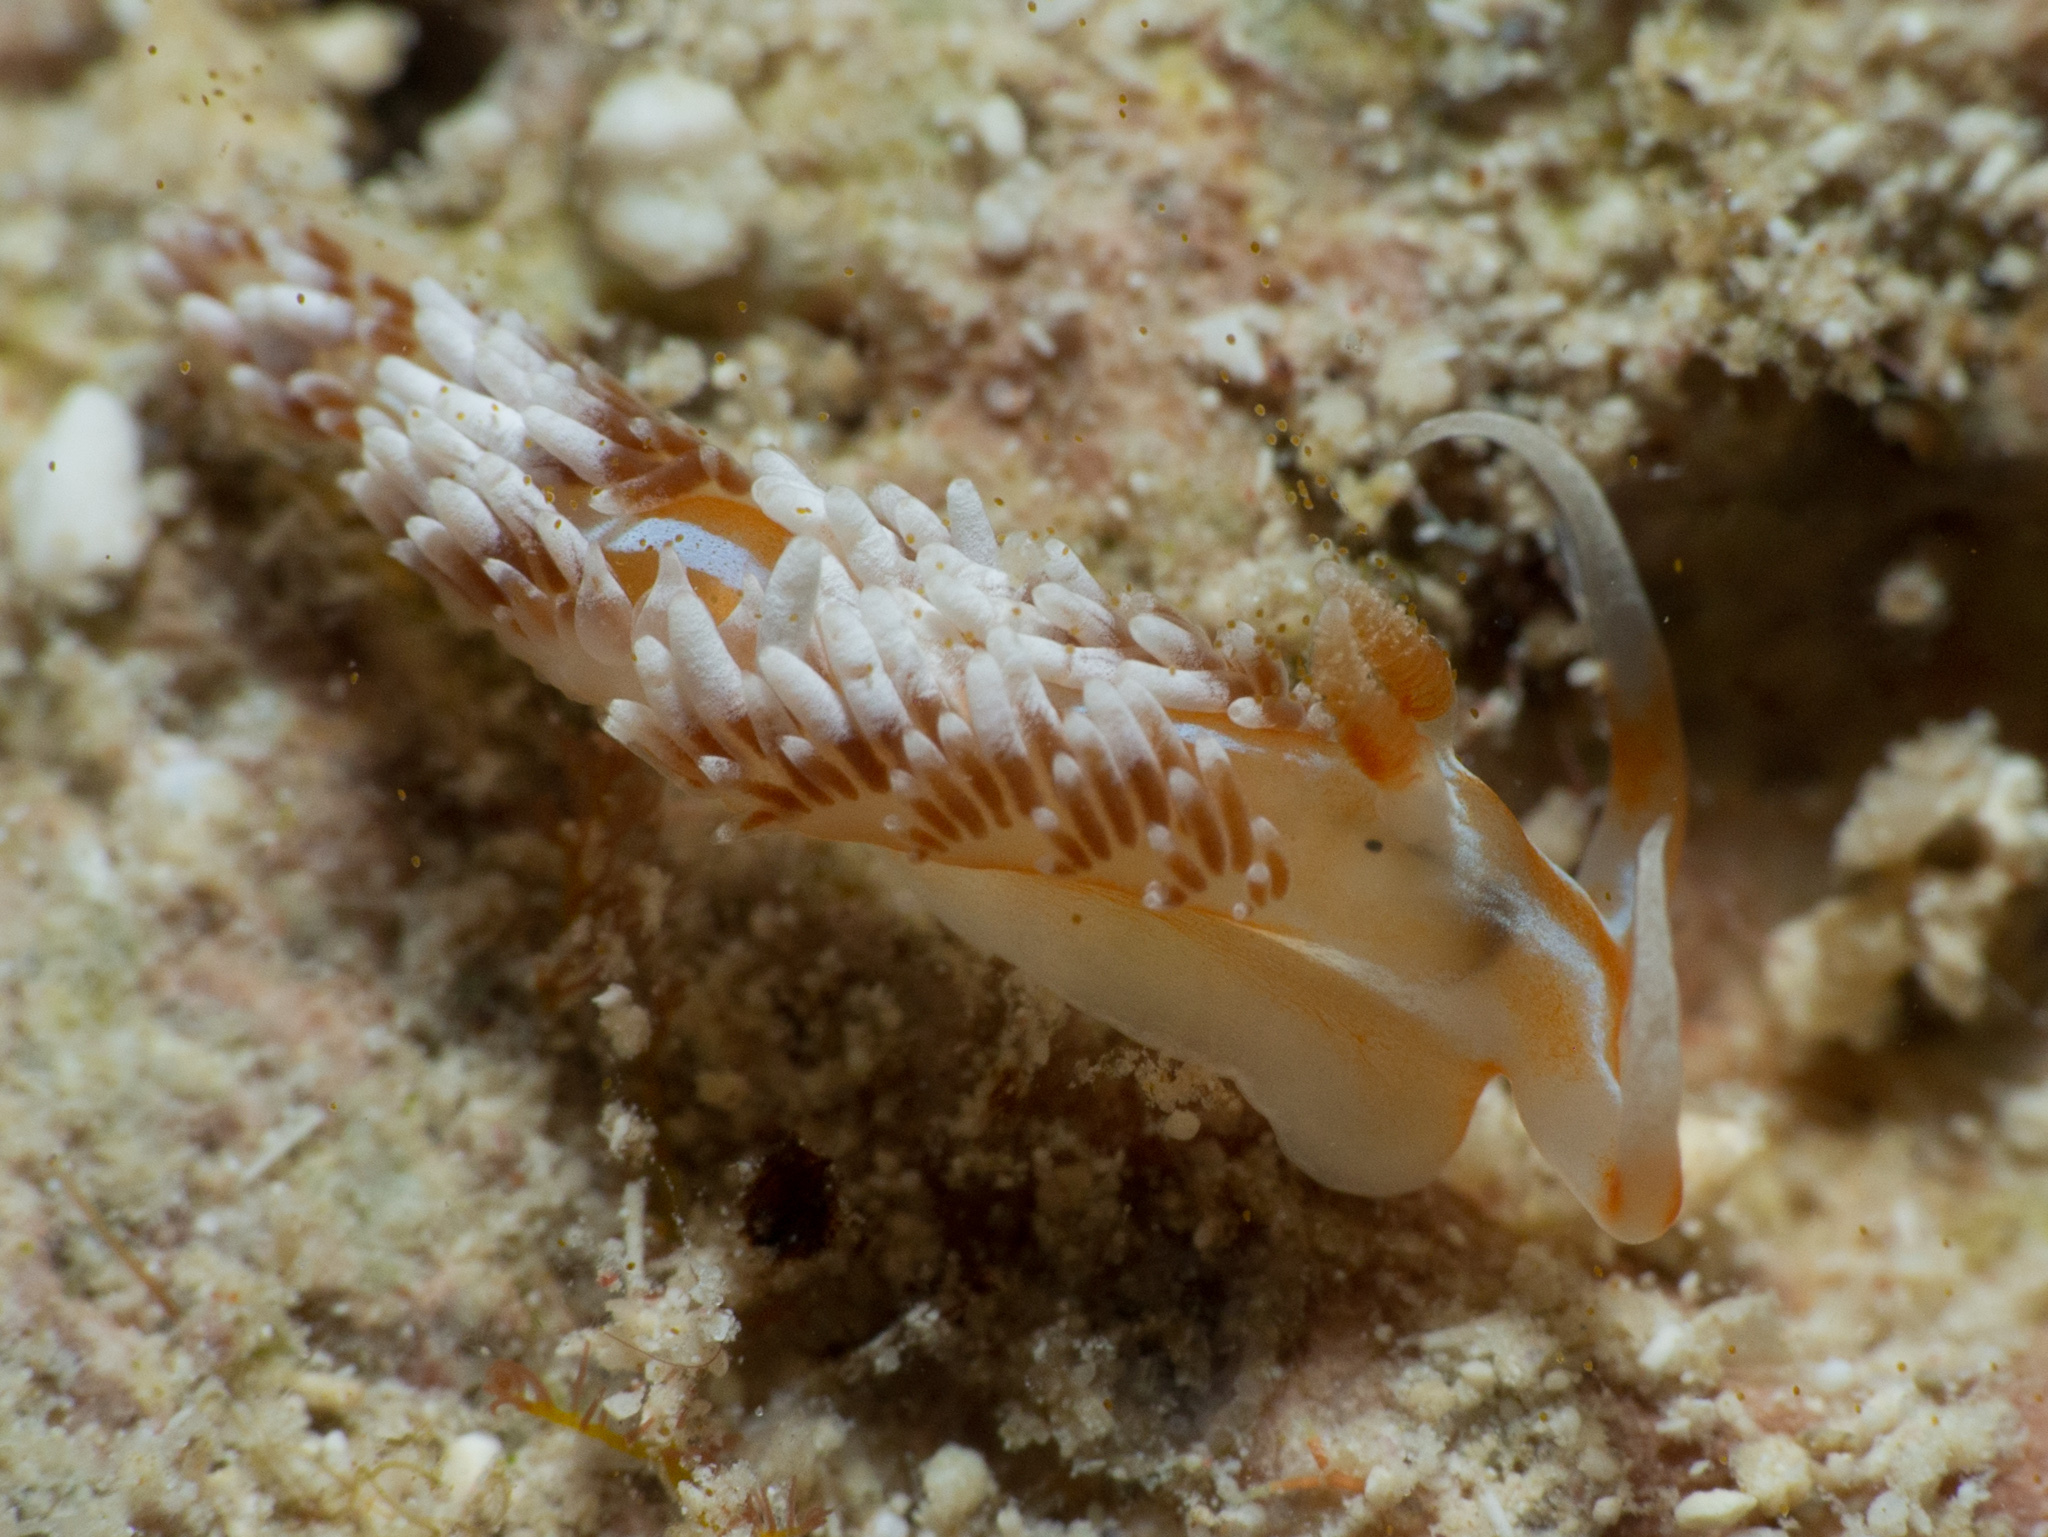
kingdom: Animalia
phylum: Mollusca
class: Gastropoda
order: Nudibranchia
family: Facelinidae
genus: Phidiana
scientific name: Phidiana lynceus
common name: Lynx nudibranch
